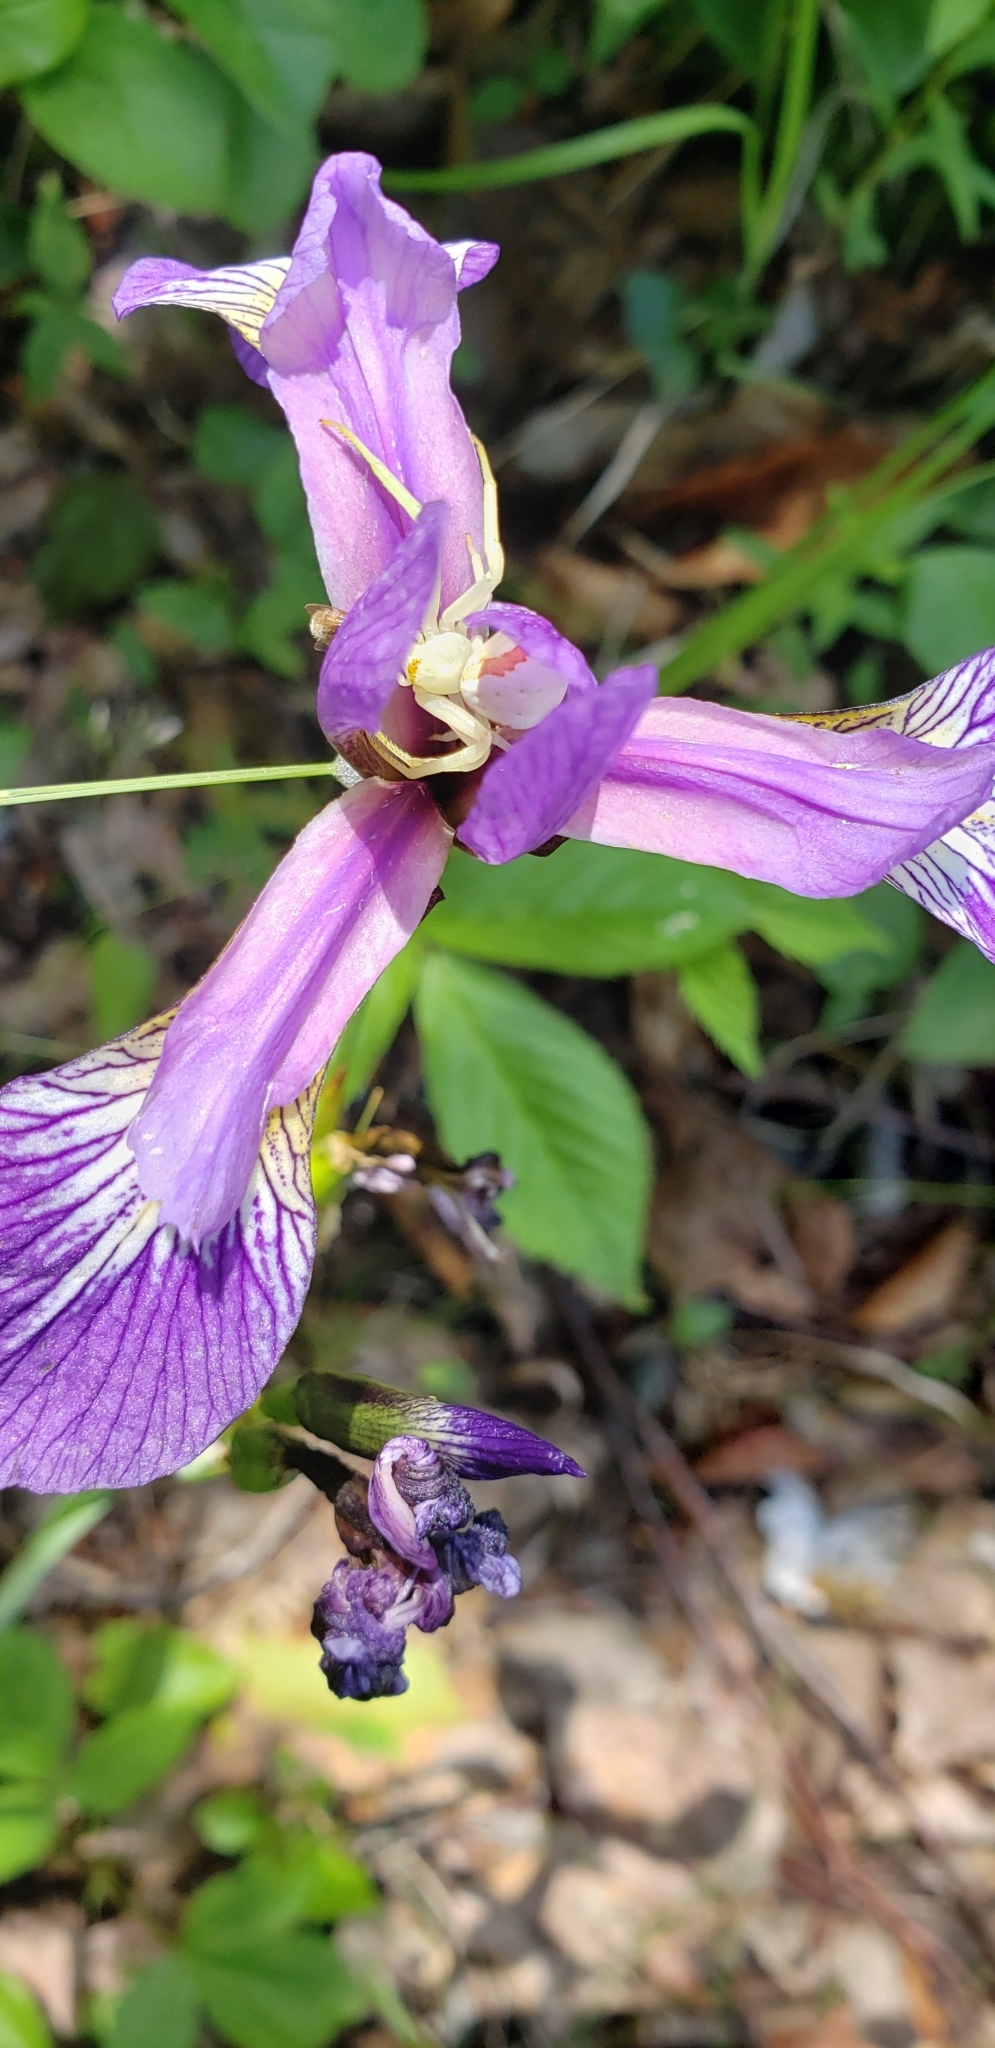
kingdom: Plantae
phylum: Tracheophyta
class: Liliopsida
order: Asparagales
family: Iridaceae
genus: Iris
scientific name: Iris versicolor
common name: Purple iris
